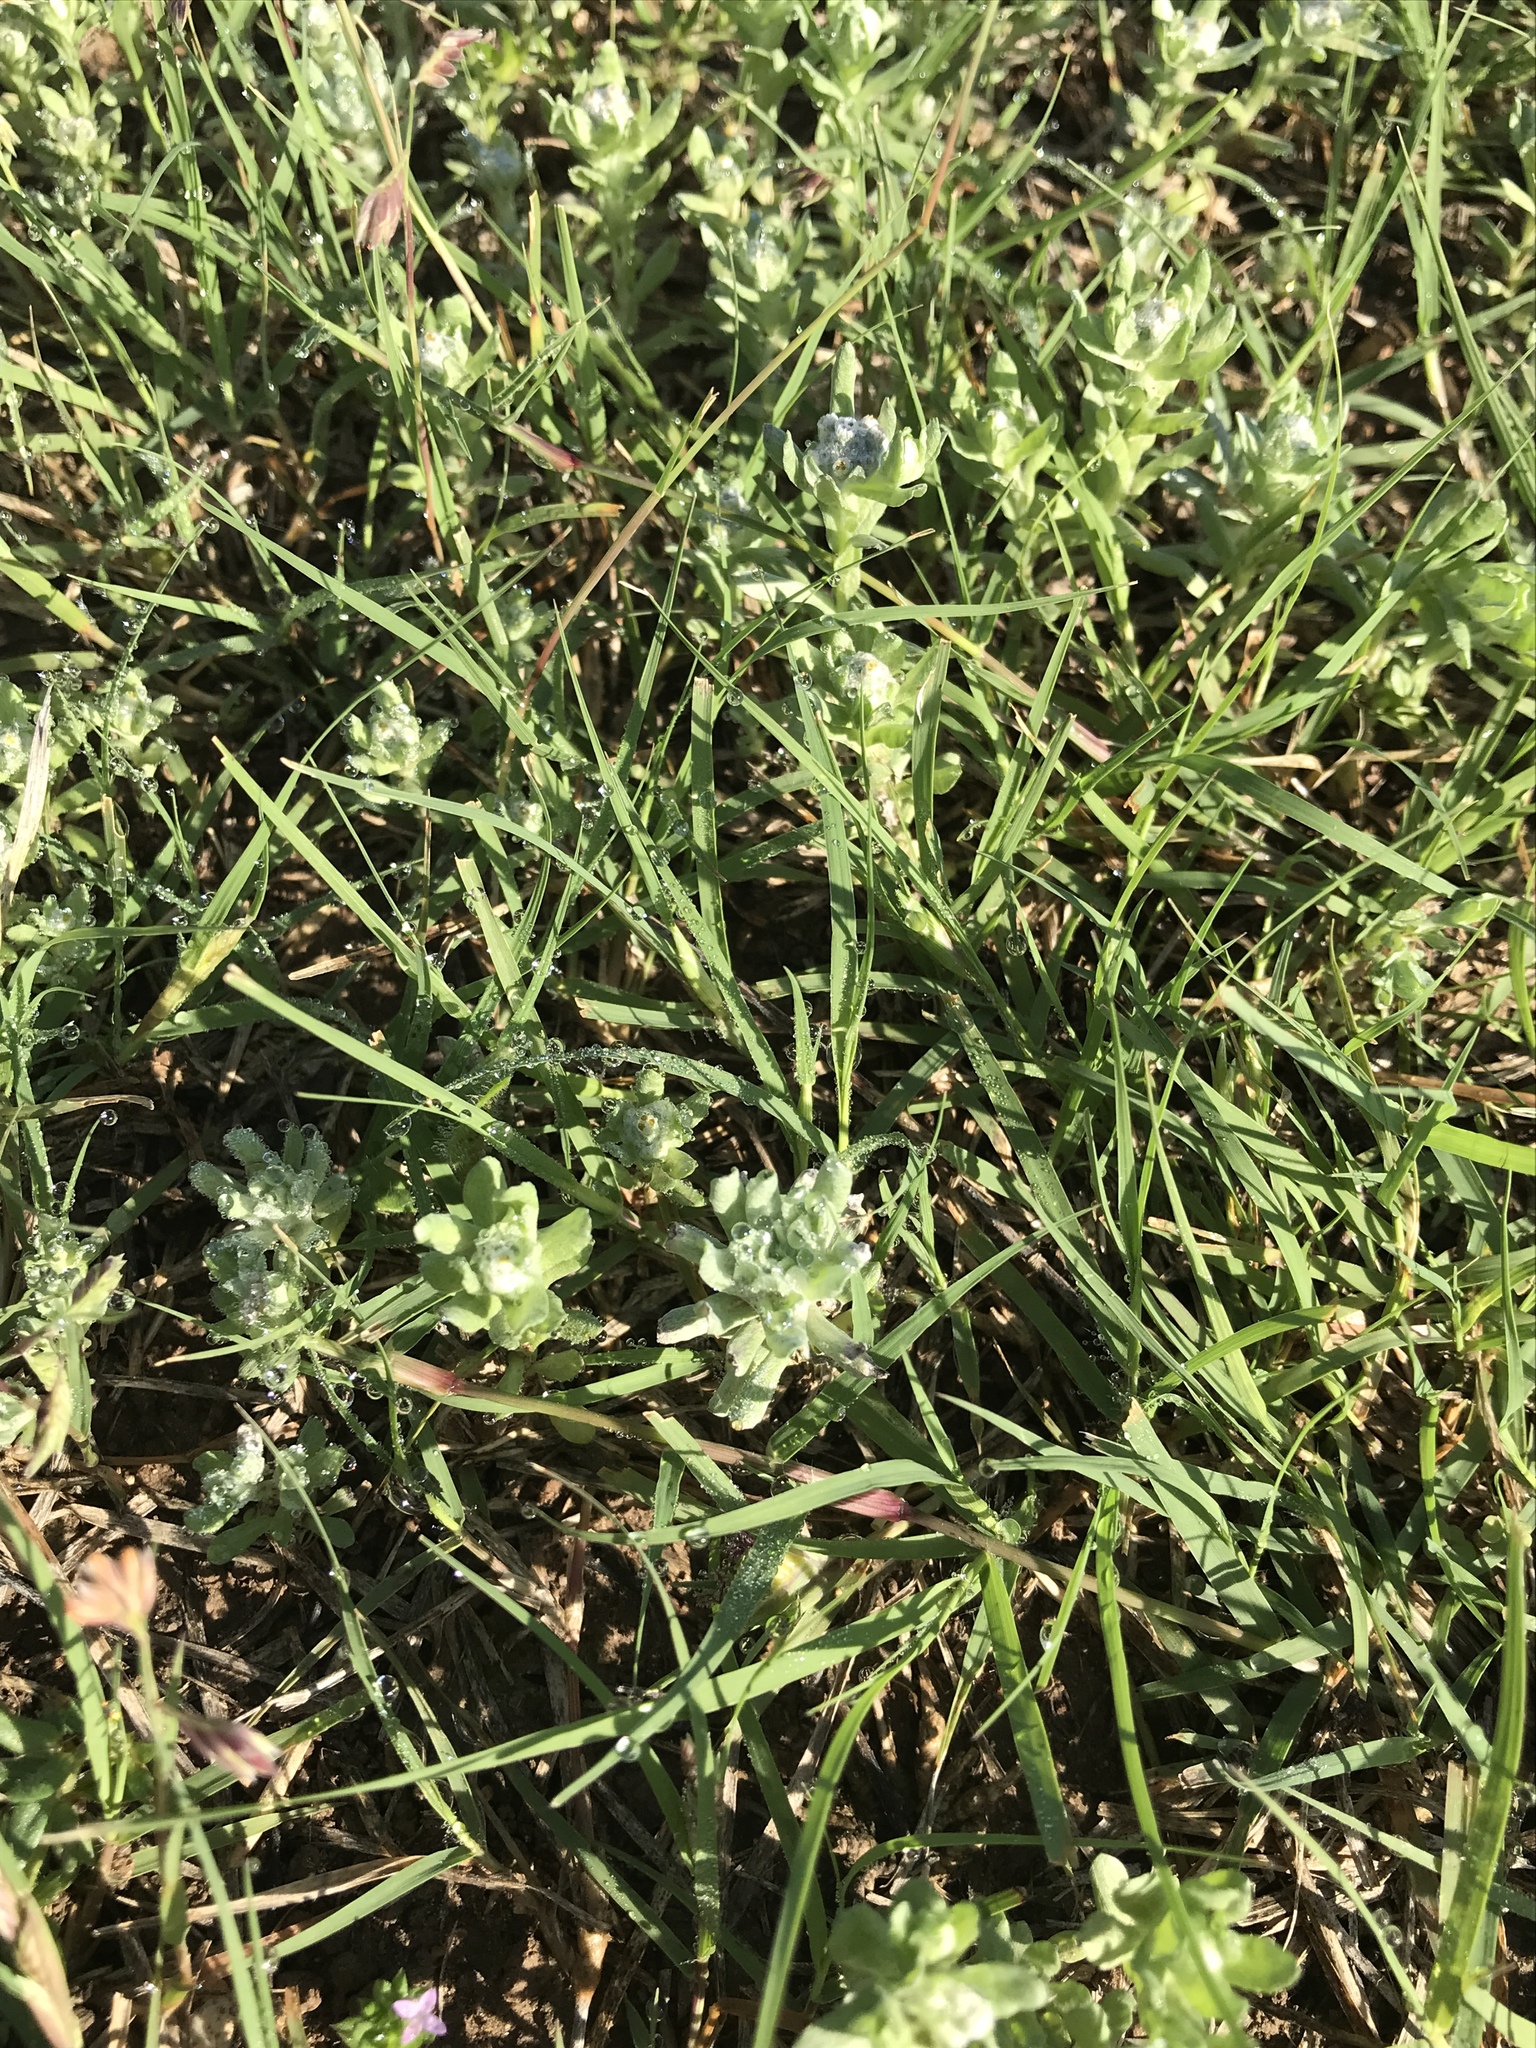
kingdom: Plantae
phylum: Tracheophyta
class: Liliopsida
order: Poales
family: Poaceae
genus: Bouteloua
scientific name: Bouteloua dactyloides
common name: Buffalo grass
